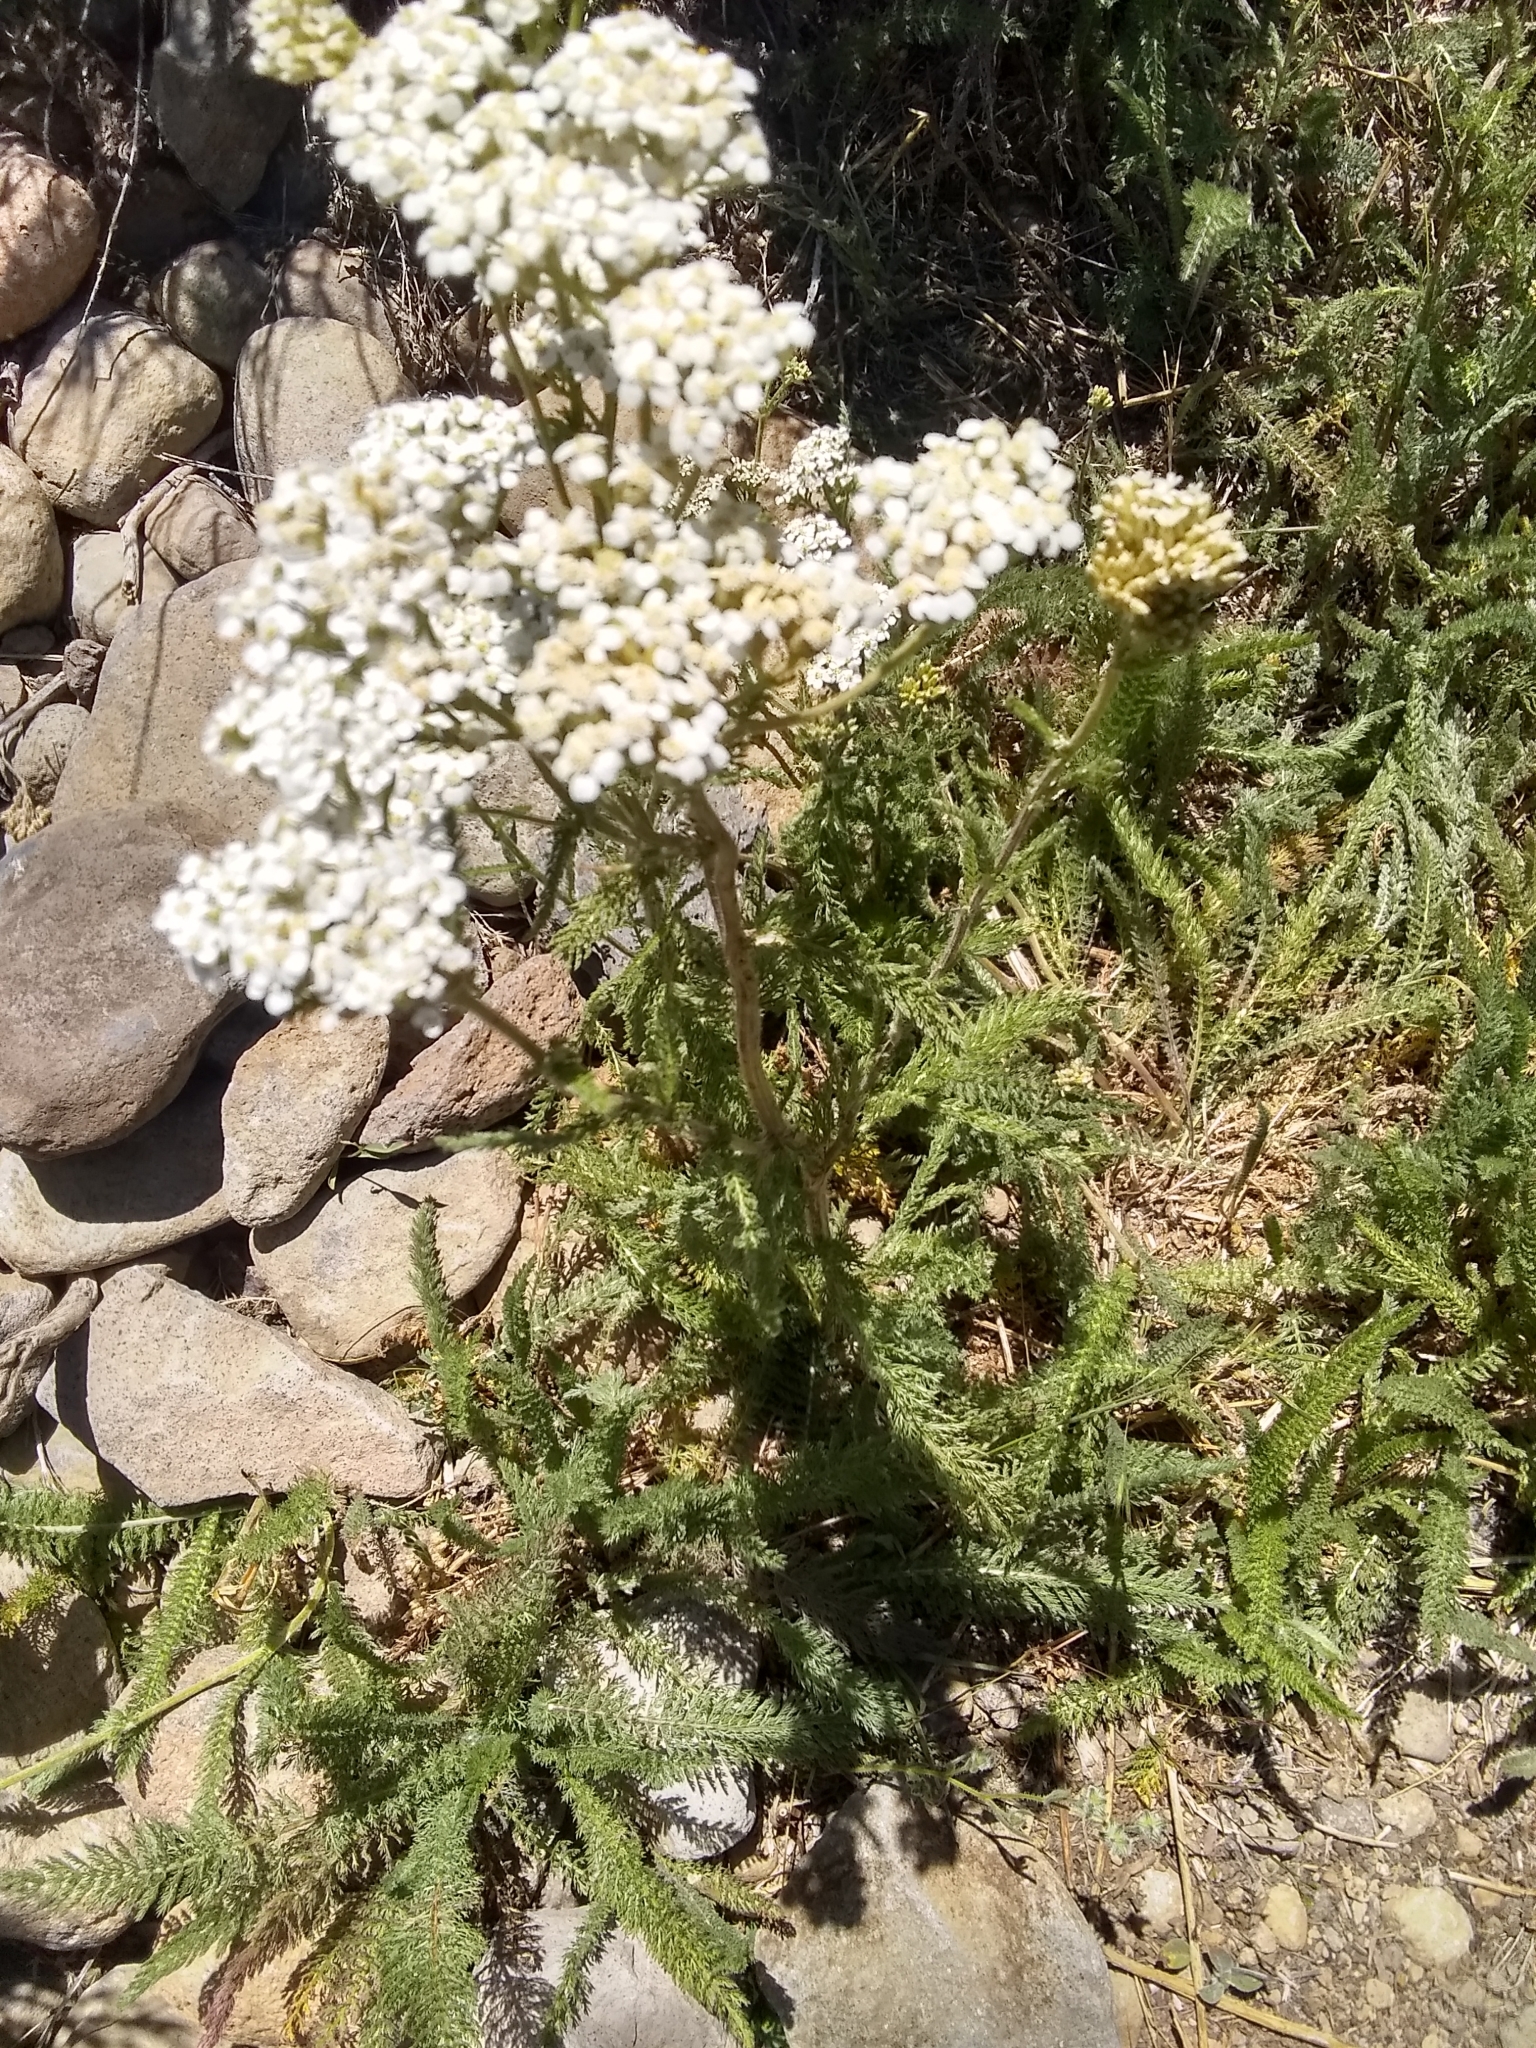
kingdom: Plantae
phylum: Tracheophyta
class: Magnoliopsida
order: Asterales
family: Asteraceae
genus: Achillea
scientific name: Achillea millefolium
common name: Yarrow
